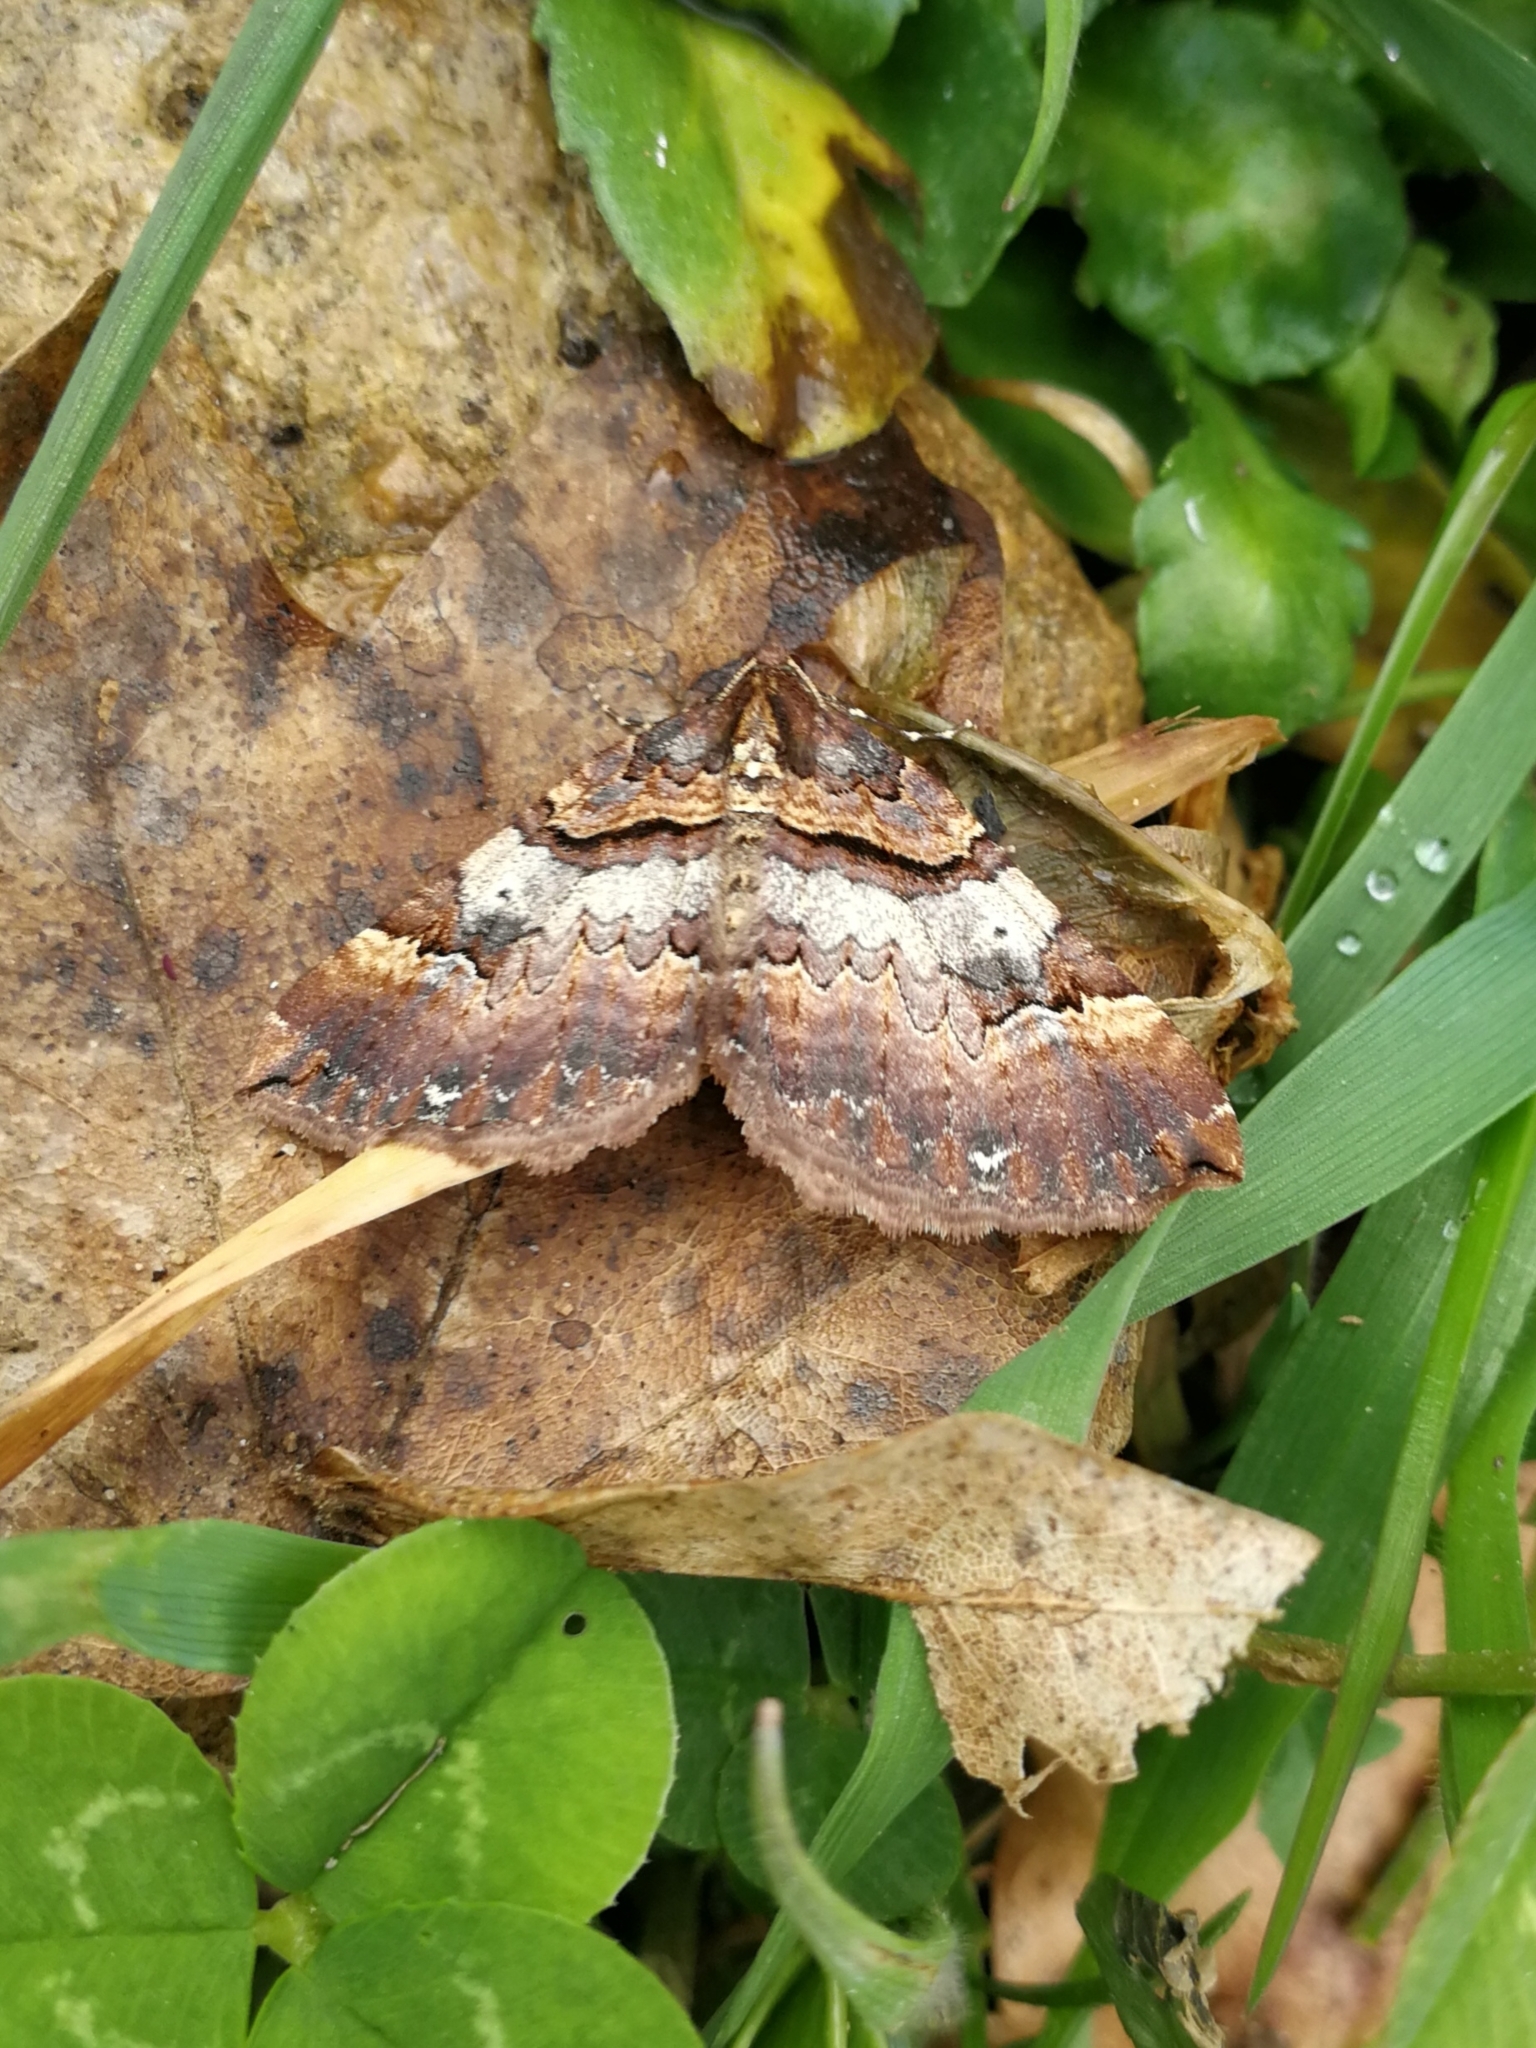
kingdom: Animalia
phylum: Arthropoda
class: Insecta
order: Lepidoptera
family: Geometridae
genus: Anticlea
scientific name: Anticlea badiata
